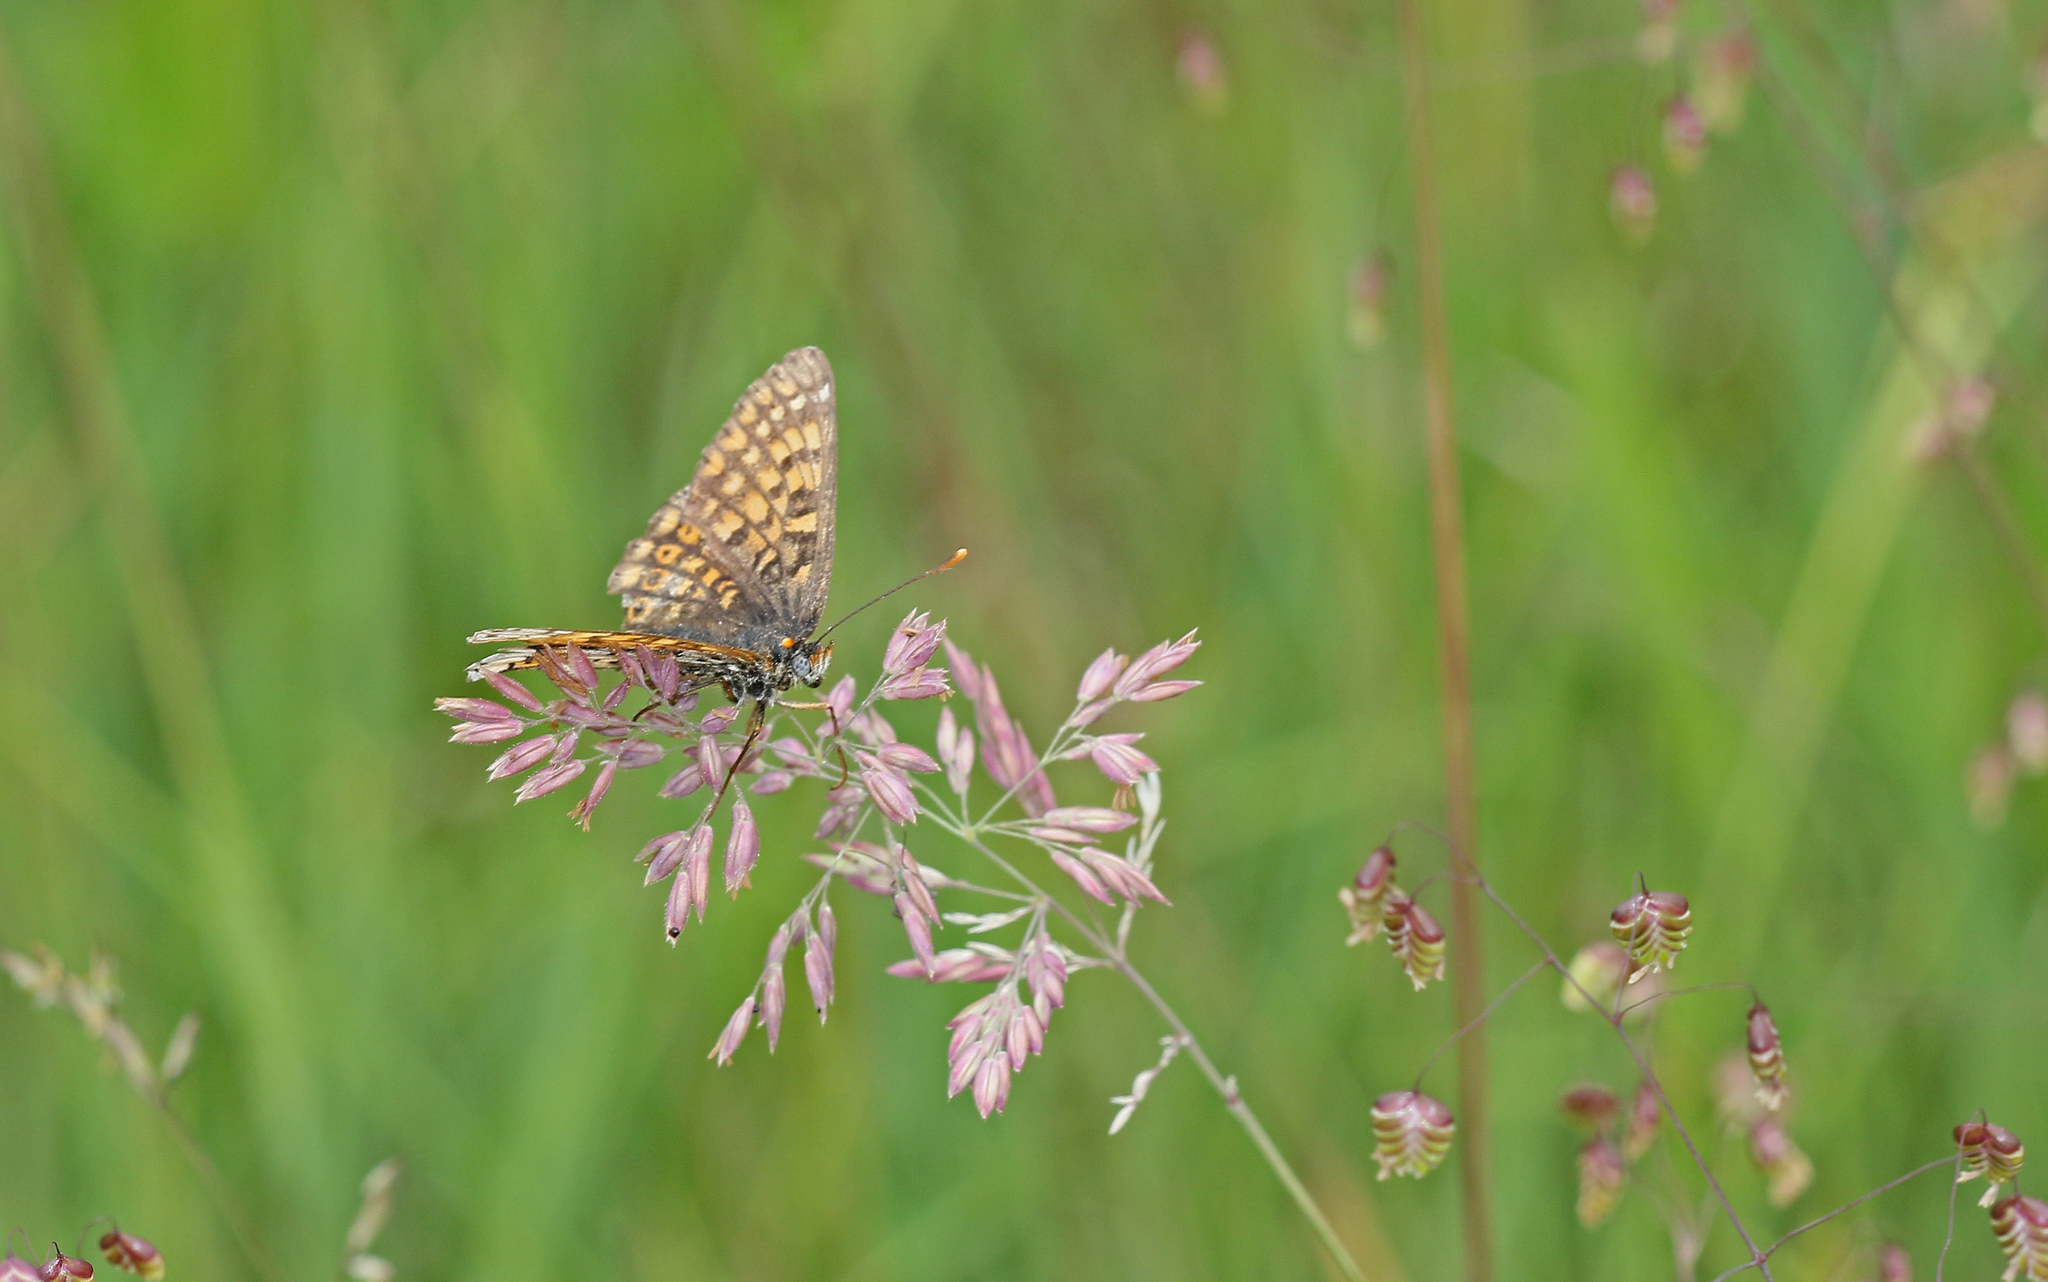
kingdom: Animalia
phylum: Arthropoda
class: Insecta
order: Lepidoptera
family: Nymphalidae
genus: Melitaea
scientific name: Melitaea cinxia
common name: Glanville fritillary
